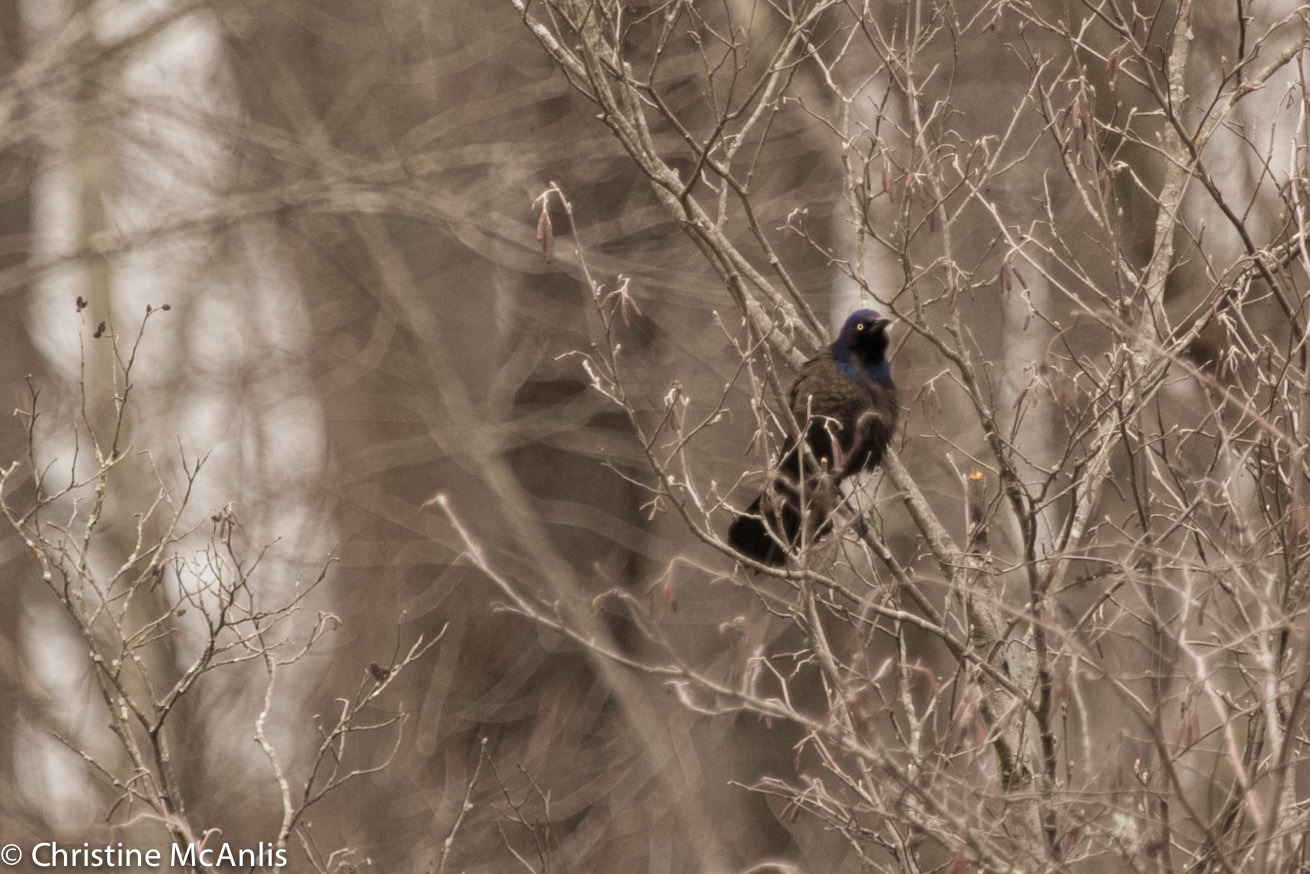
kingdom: Animalia
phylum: Chordata
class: Aves
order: Passeriformes
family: Icteridae
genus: Quiscalus
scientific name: Quiscalus quiscula
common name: Common grackle
